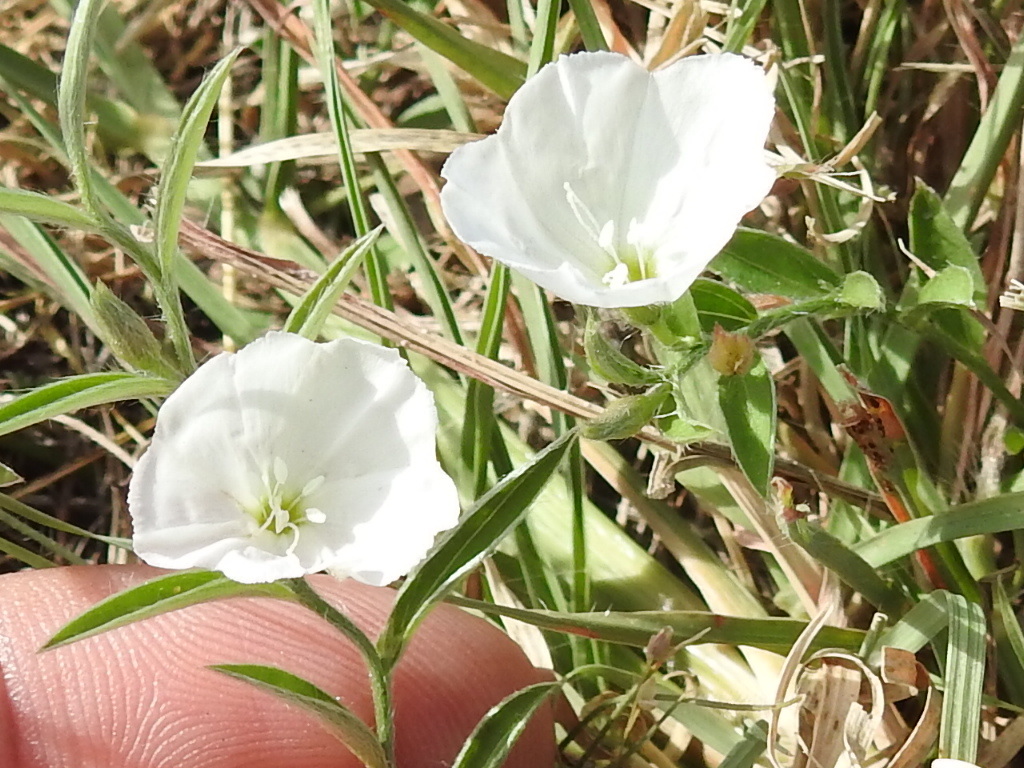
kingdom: Plantae
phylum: Tracheophyta
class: Magnoliopsida
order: Solanales
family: Convolvulaceae
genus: Evolvulus
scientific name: Evolvulus sericeus
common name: Blue dots
